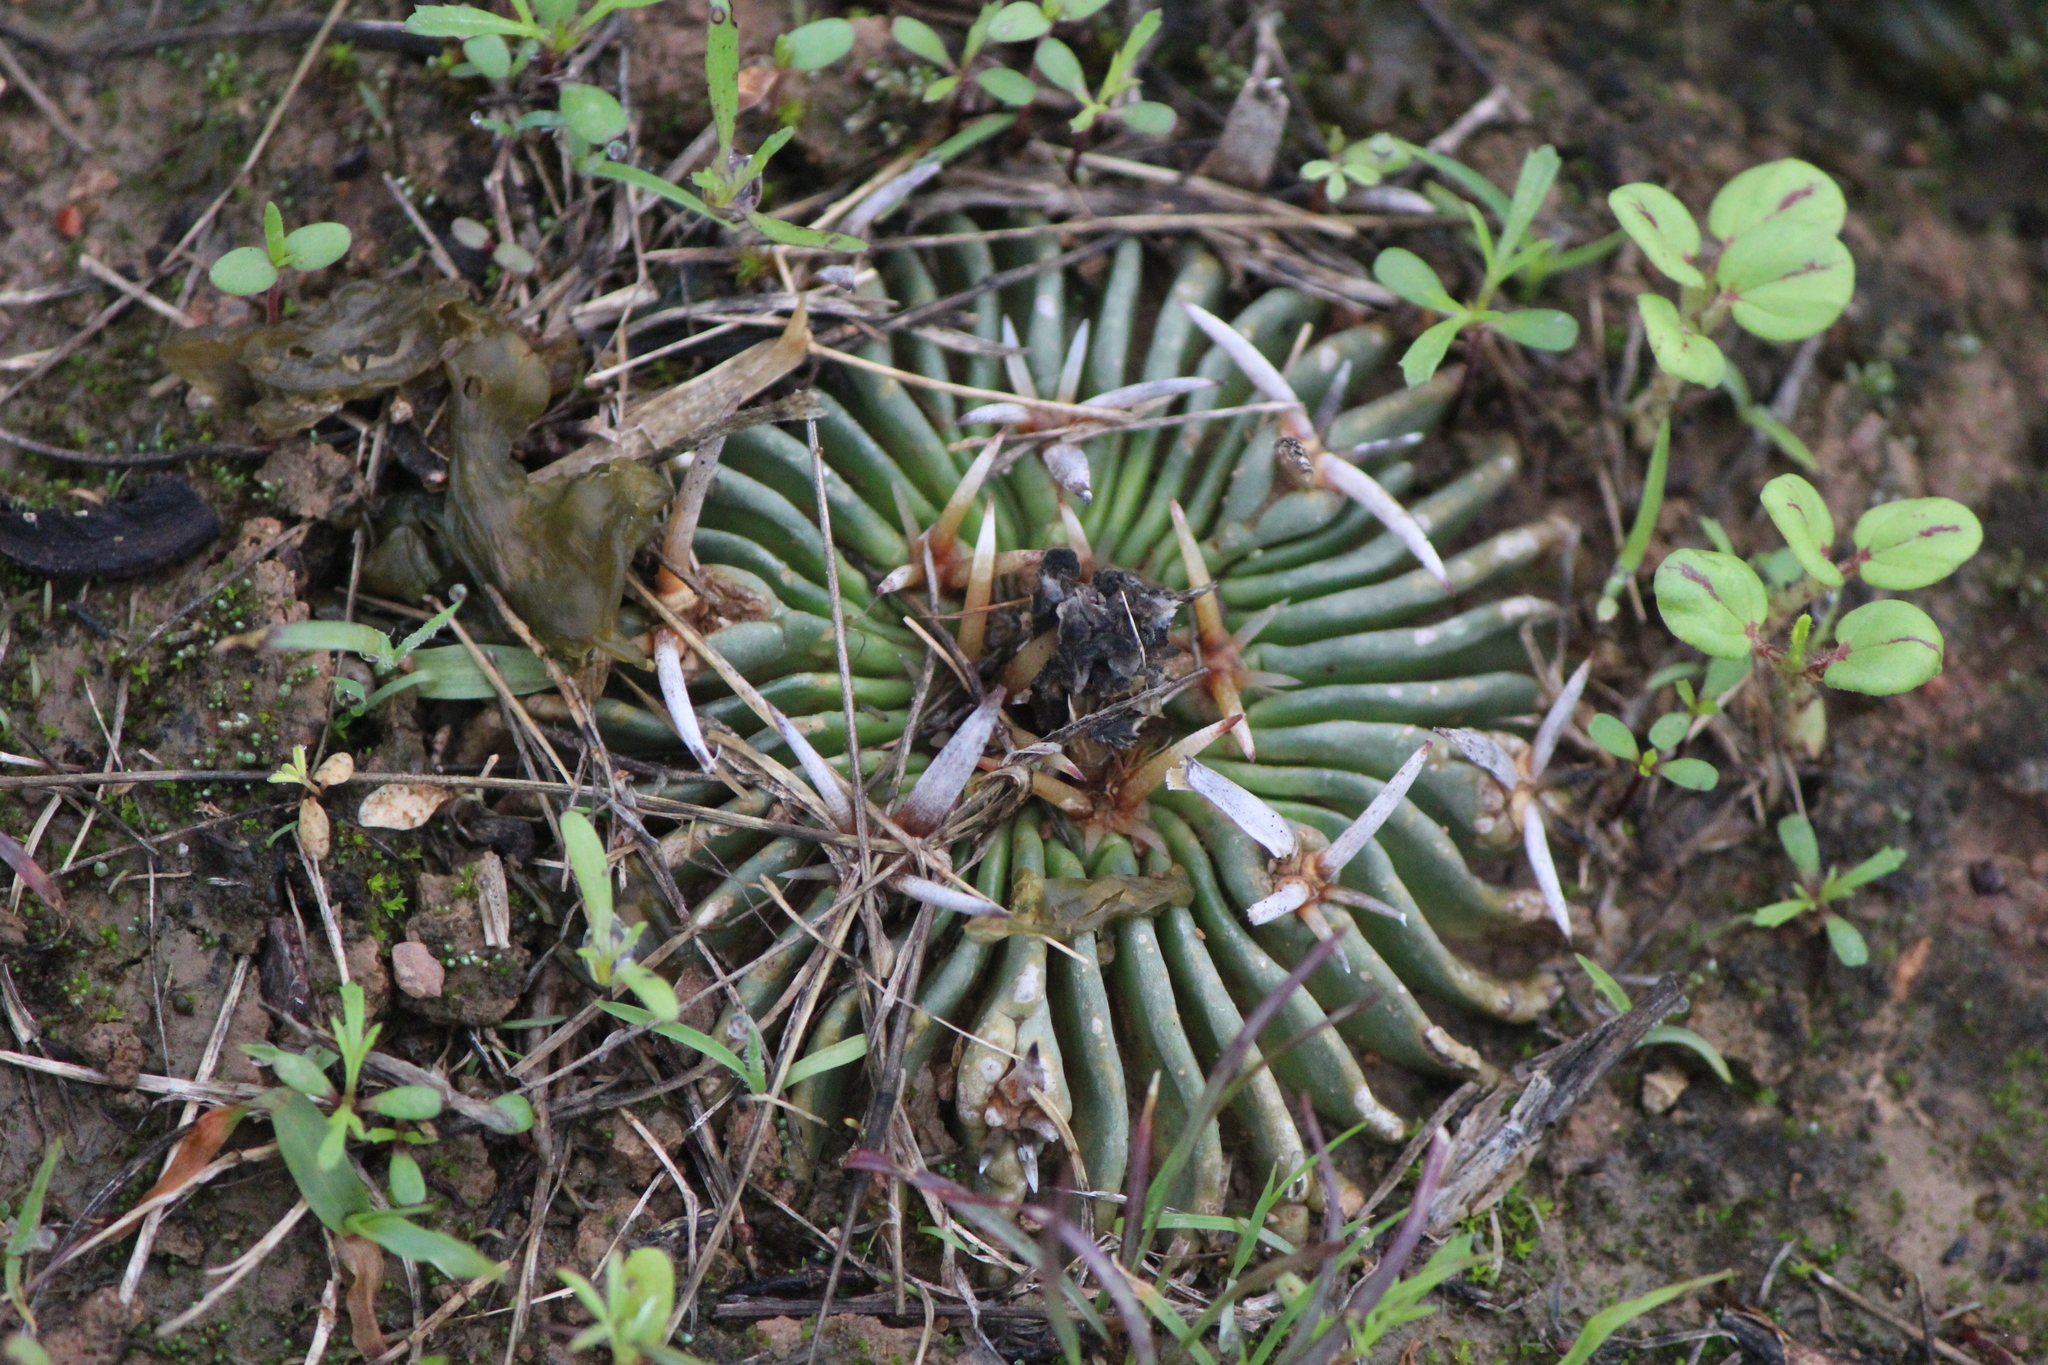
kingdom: Plantae
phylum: Tracheophyta
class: Magnoliopsida
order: Caryophyllales
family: Cactaceae
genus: Stenocactus
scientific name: Stenocactus obvallatus
